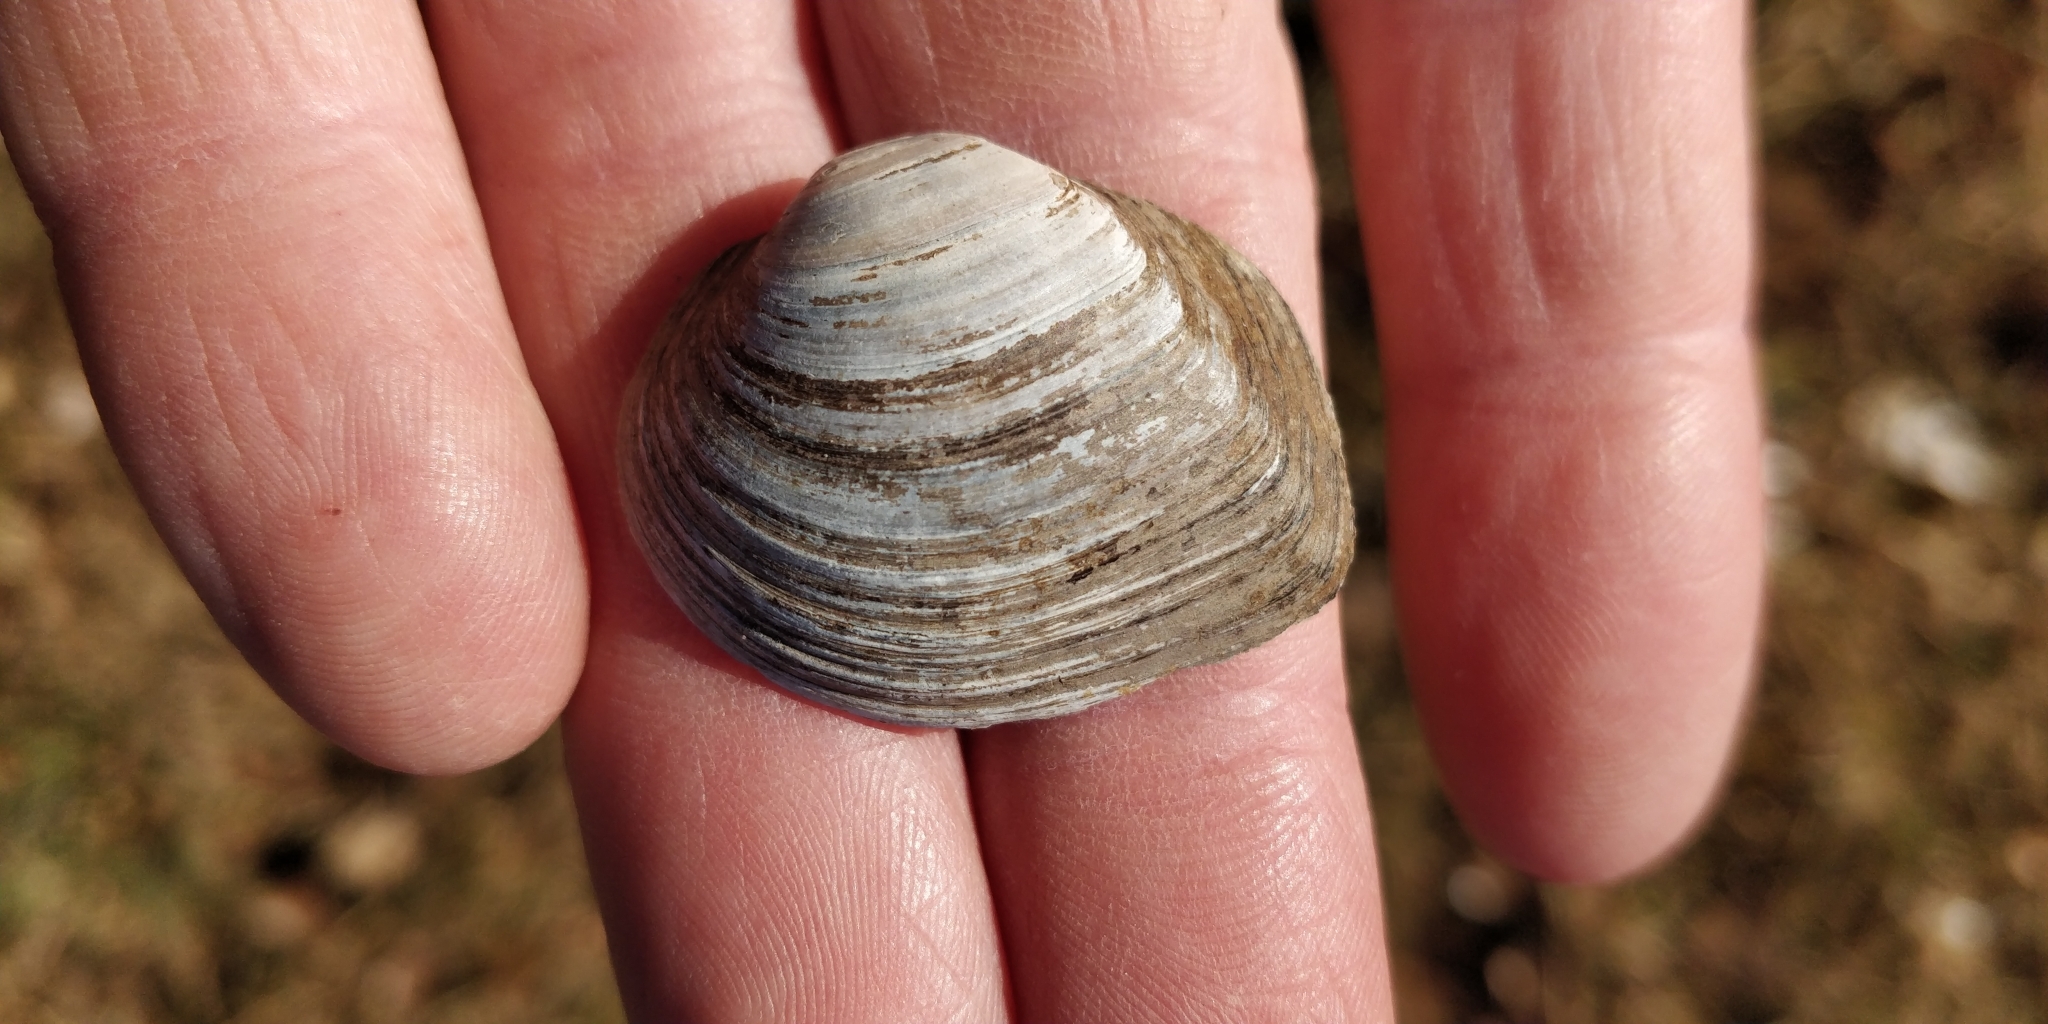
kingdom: Animalia
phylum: Mollusca
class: Bivalvia
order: Unionida
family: Unionidae
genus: Fusconaia
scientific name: Fusconaia flava
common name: Wabash pigtoe
